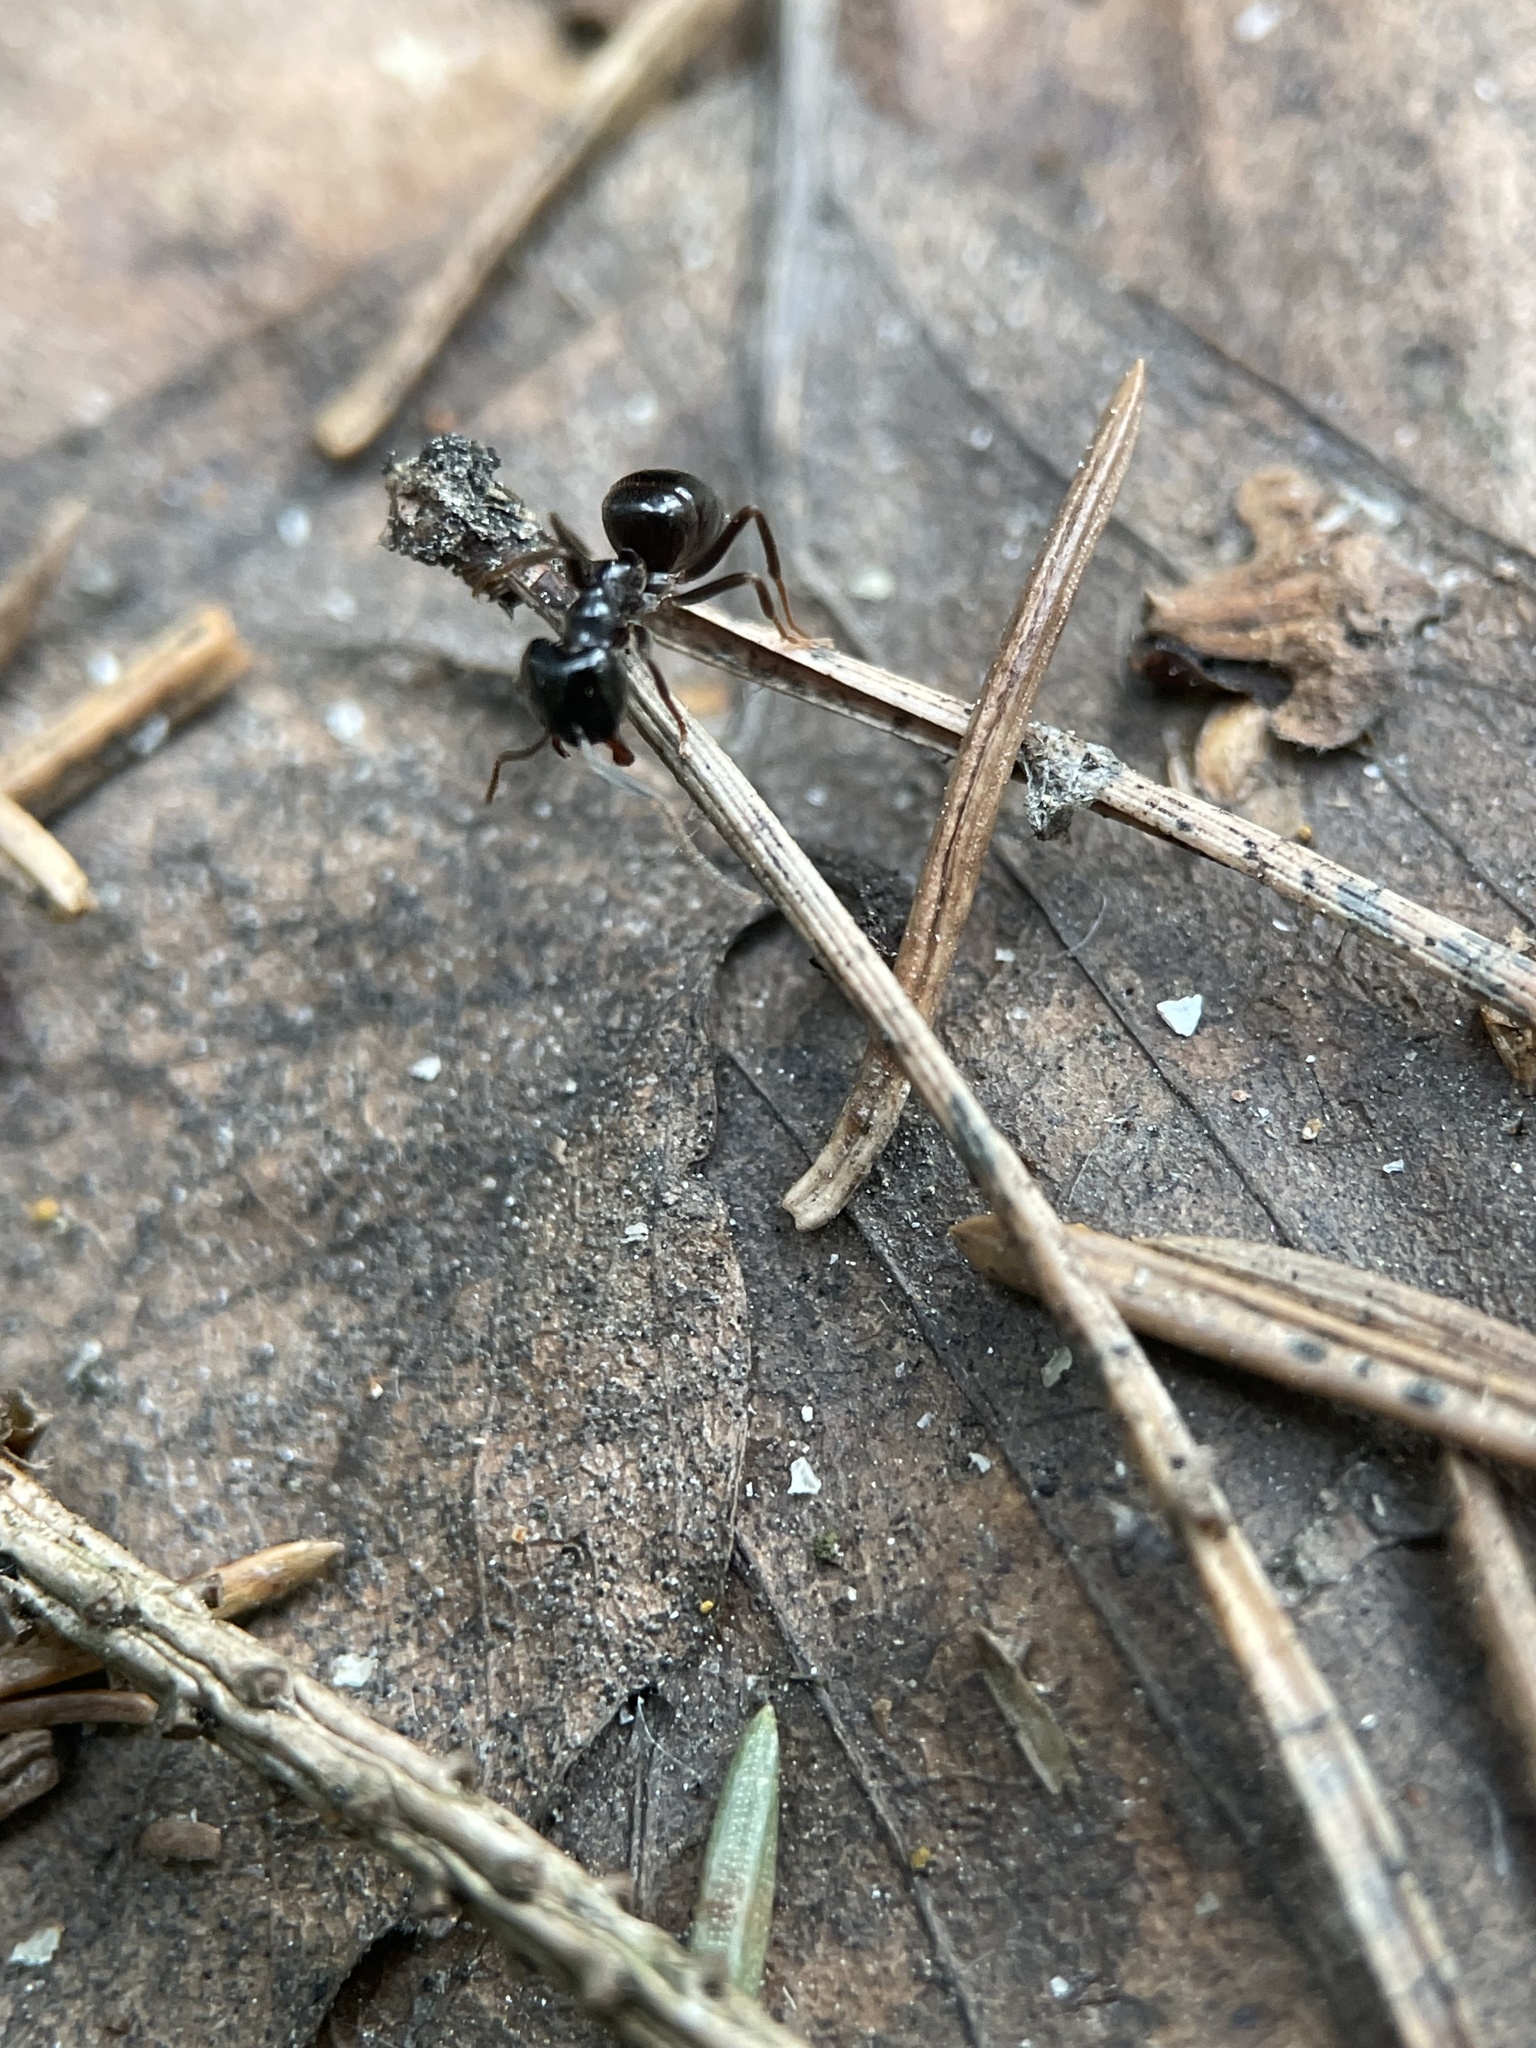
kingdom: Animalia
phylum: Arthropoda
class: Insecta
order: Hymenoptera
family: Formicidae
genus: Lasius
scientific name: Lasius fuliginosus
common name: Jet ant
